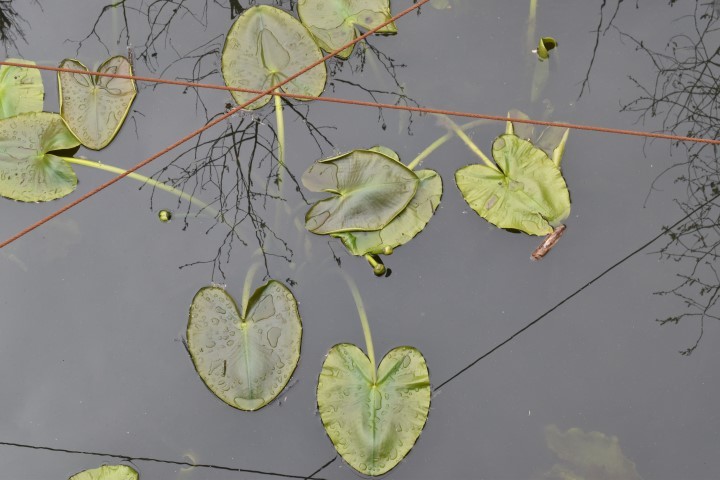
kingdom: Plantae
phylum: Tracheophyta
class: Magnoliopsida
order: Nymphaeales
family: Nymphaeaceae
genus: Nuphar
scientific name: Nuphar polysepala
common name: Rocky mountain cow-lily
